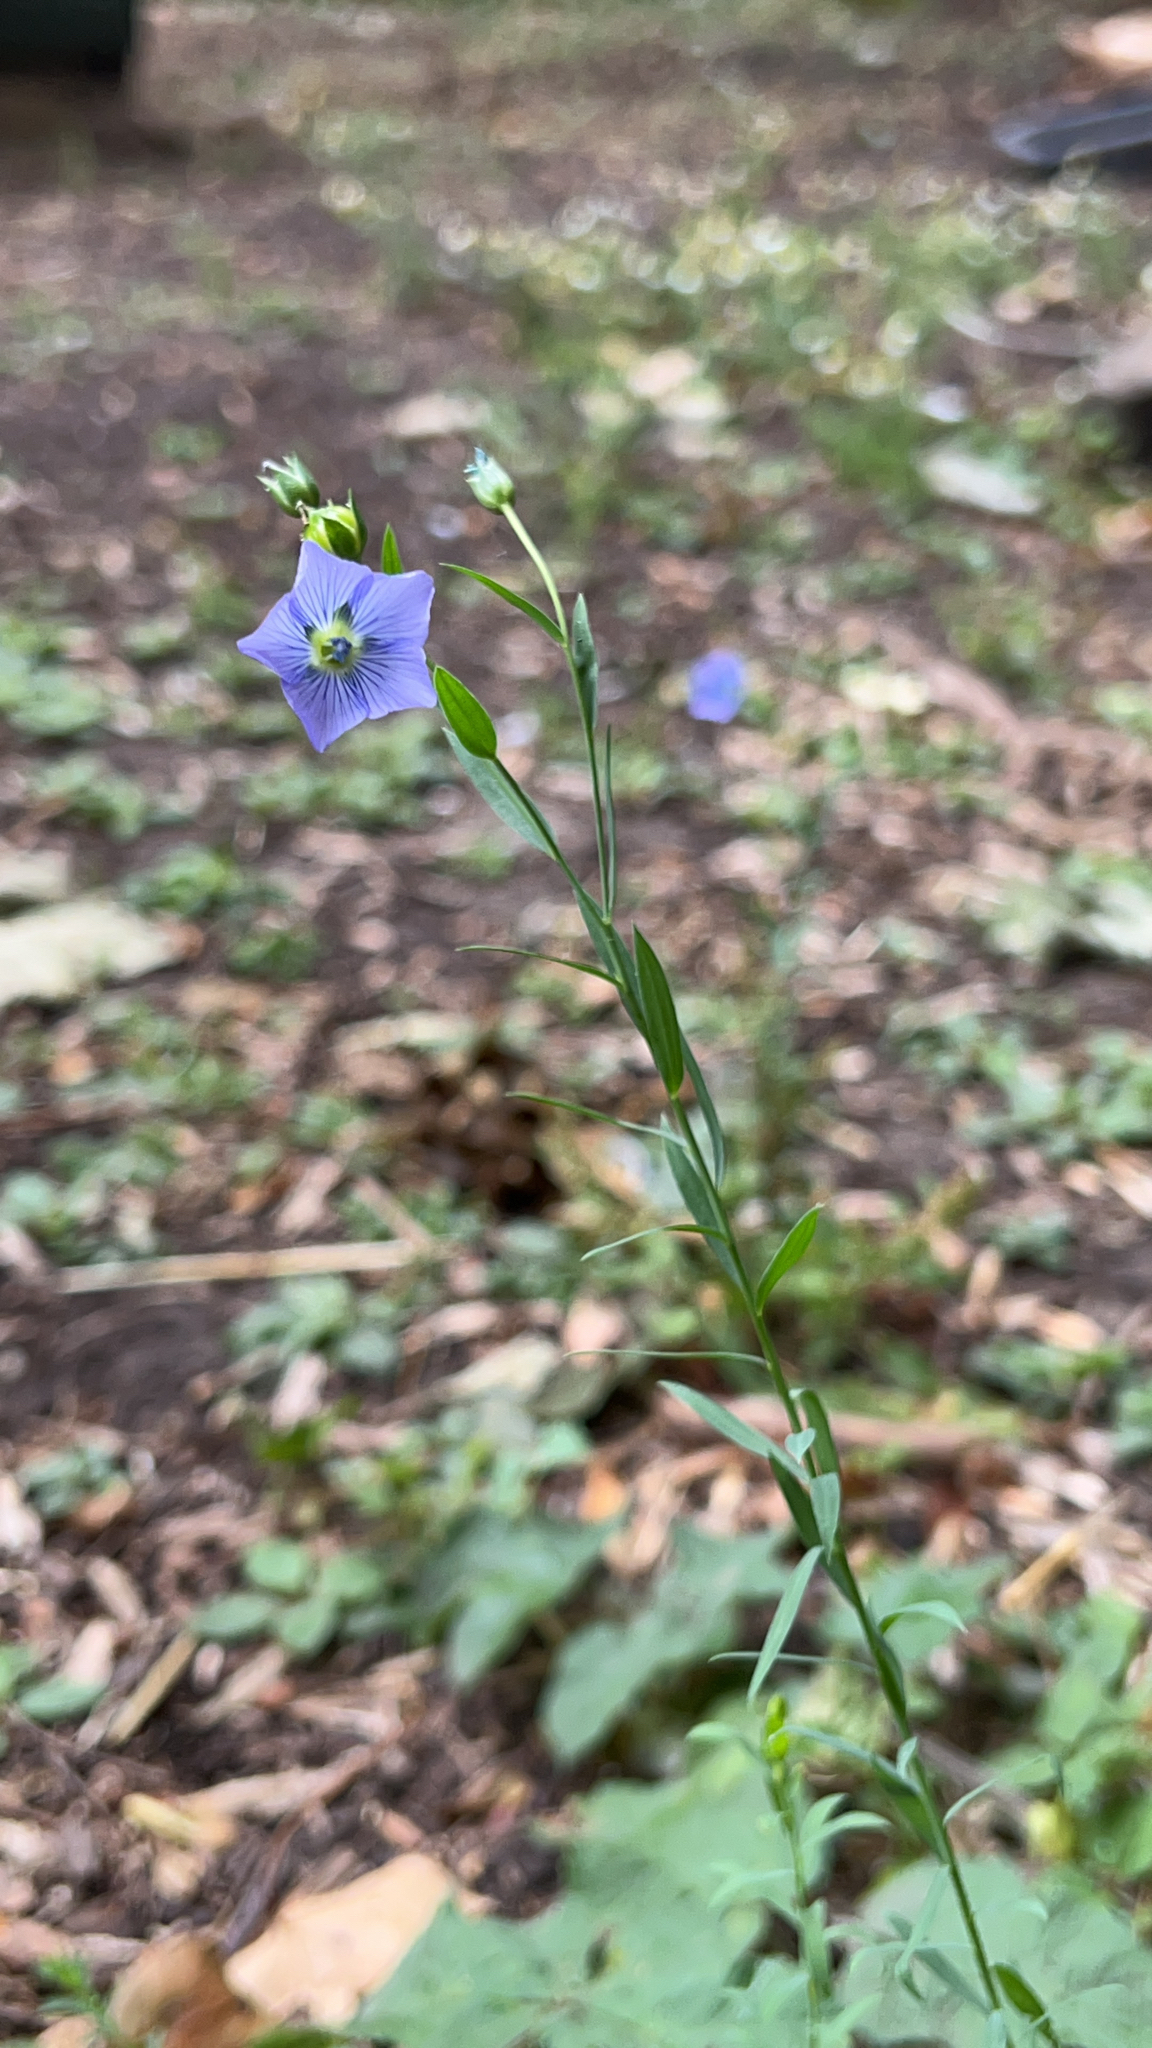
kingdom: Plantae
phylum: Tracheophyta
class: Magnoliopsida
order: Malpighiales
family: Linaceae
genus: Linum
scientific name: Linum usitatissimum
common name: Flax
